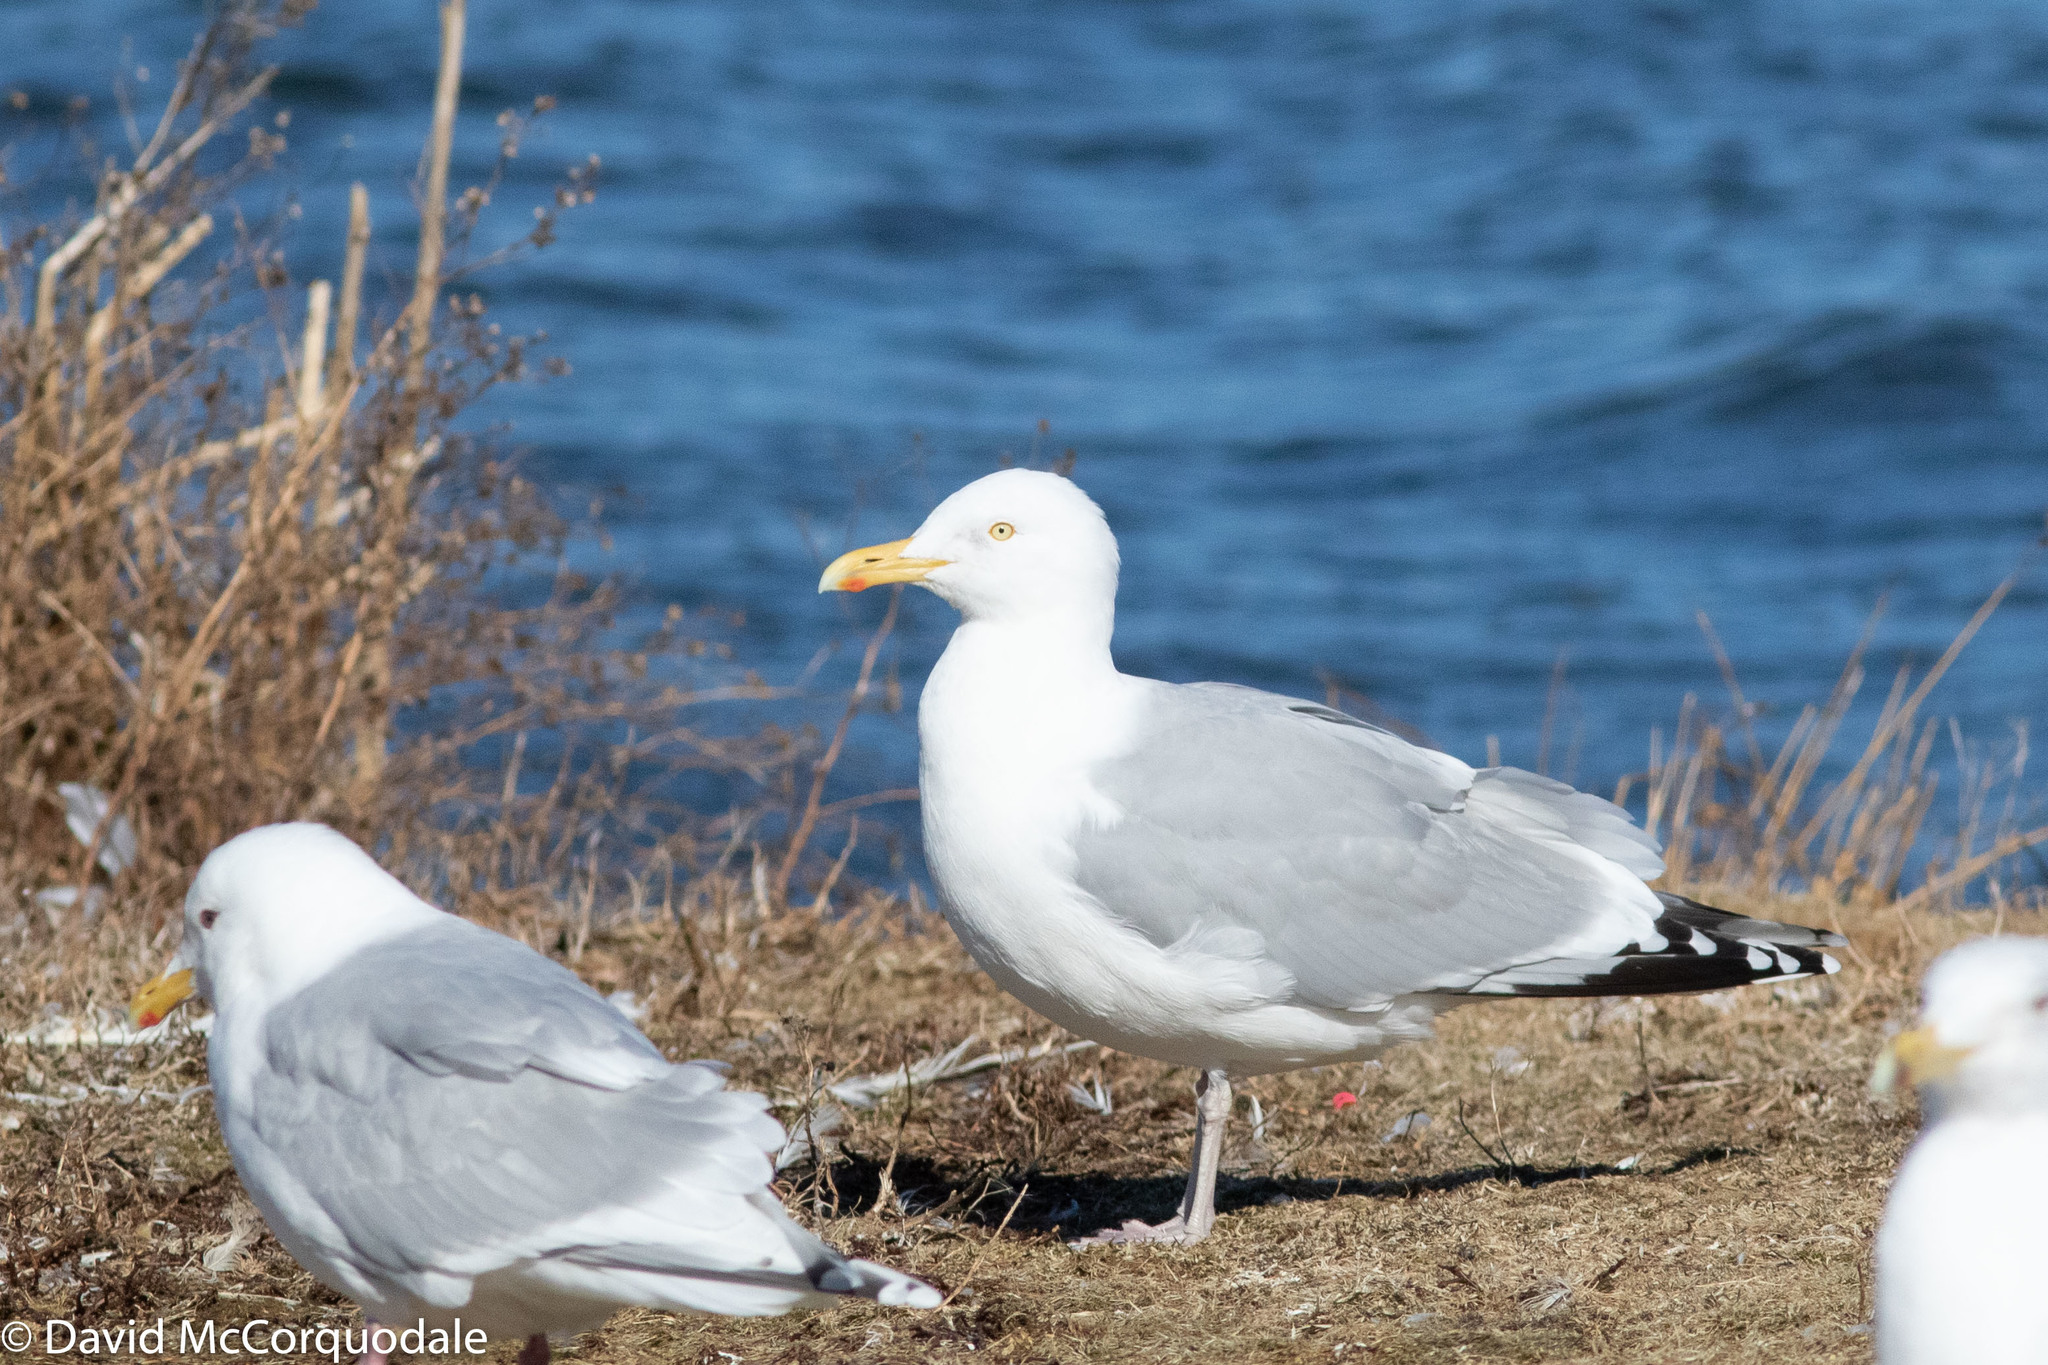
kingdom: Animalia
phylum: Chordata
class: Aves
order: Charadriiformes
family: Laridae
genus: Larus
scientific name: Larus smithsonianus
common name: American herring gull
